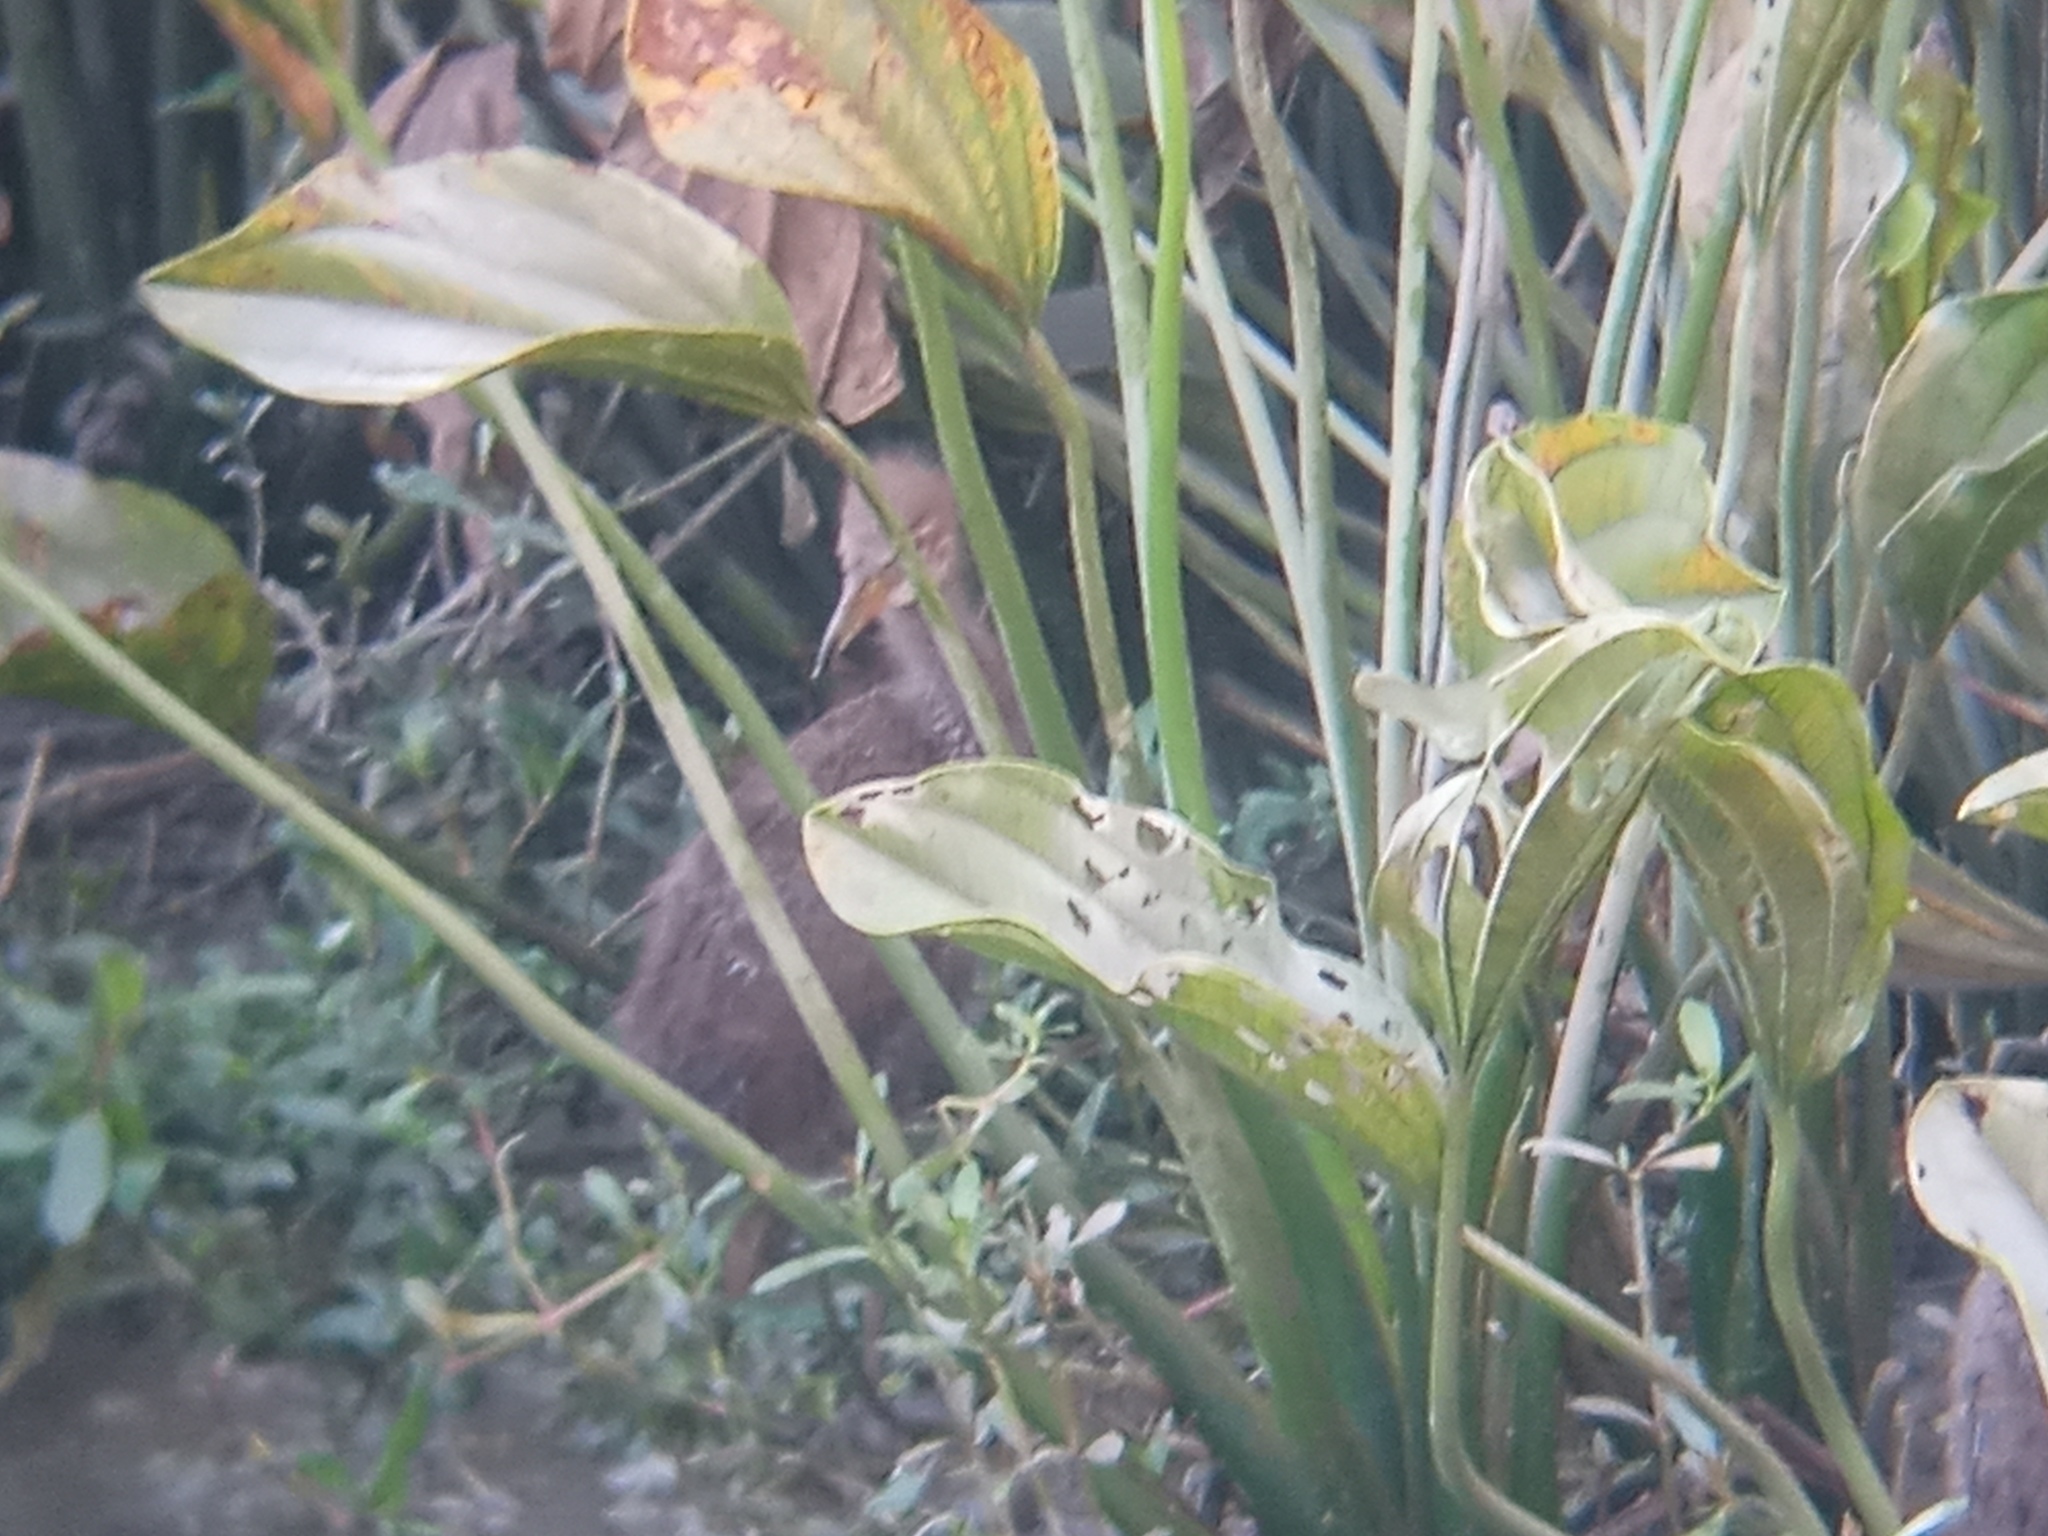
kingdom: Animalia
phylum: Chordata
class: Aves
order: Gruiformes
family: Aramidae
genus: Aramus
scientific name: Aramus guarauna
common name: Limpkin
